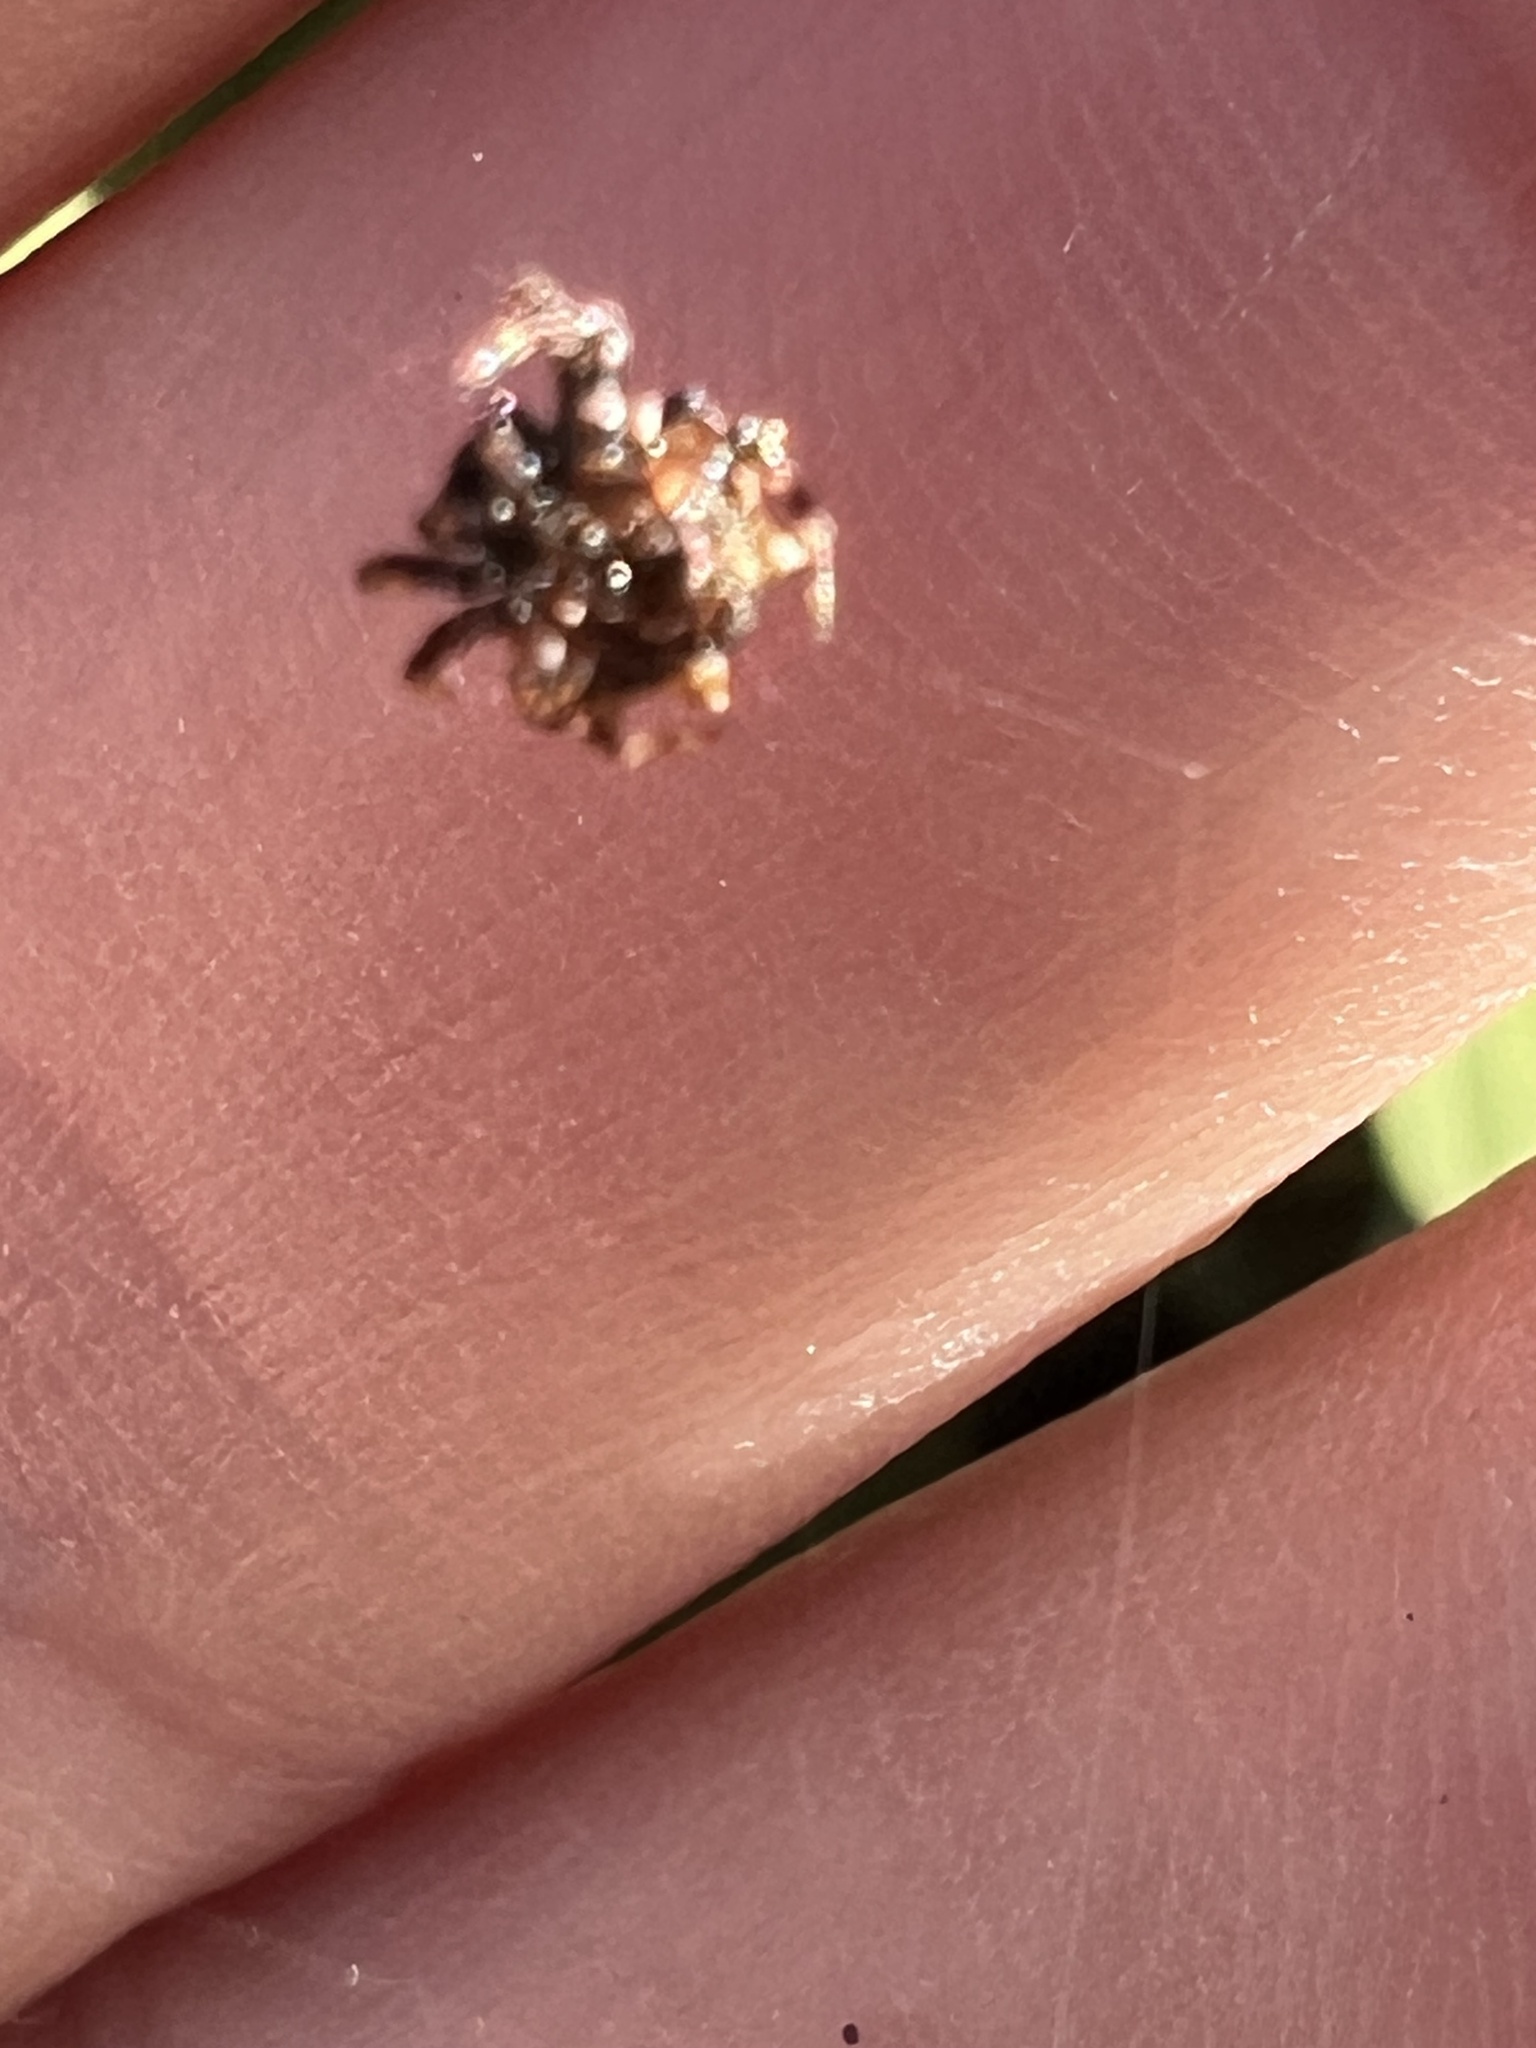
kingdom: Animalia
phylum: Arthropoda
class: Arachnida
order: Araneae
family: Araneidae
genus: Thelacantha
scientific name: Thelacantha brevispina
